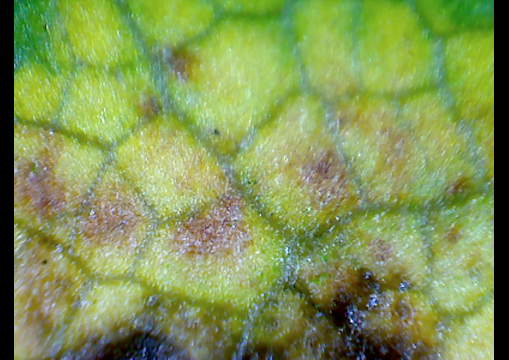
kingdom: Fungi
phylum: Ascomycota
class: Leotiomycetes
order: Rhytismatales
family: Rhytismataceae
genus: Rhytisma
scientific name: Rhytisma acerinum
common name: European tar spot
